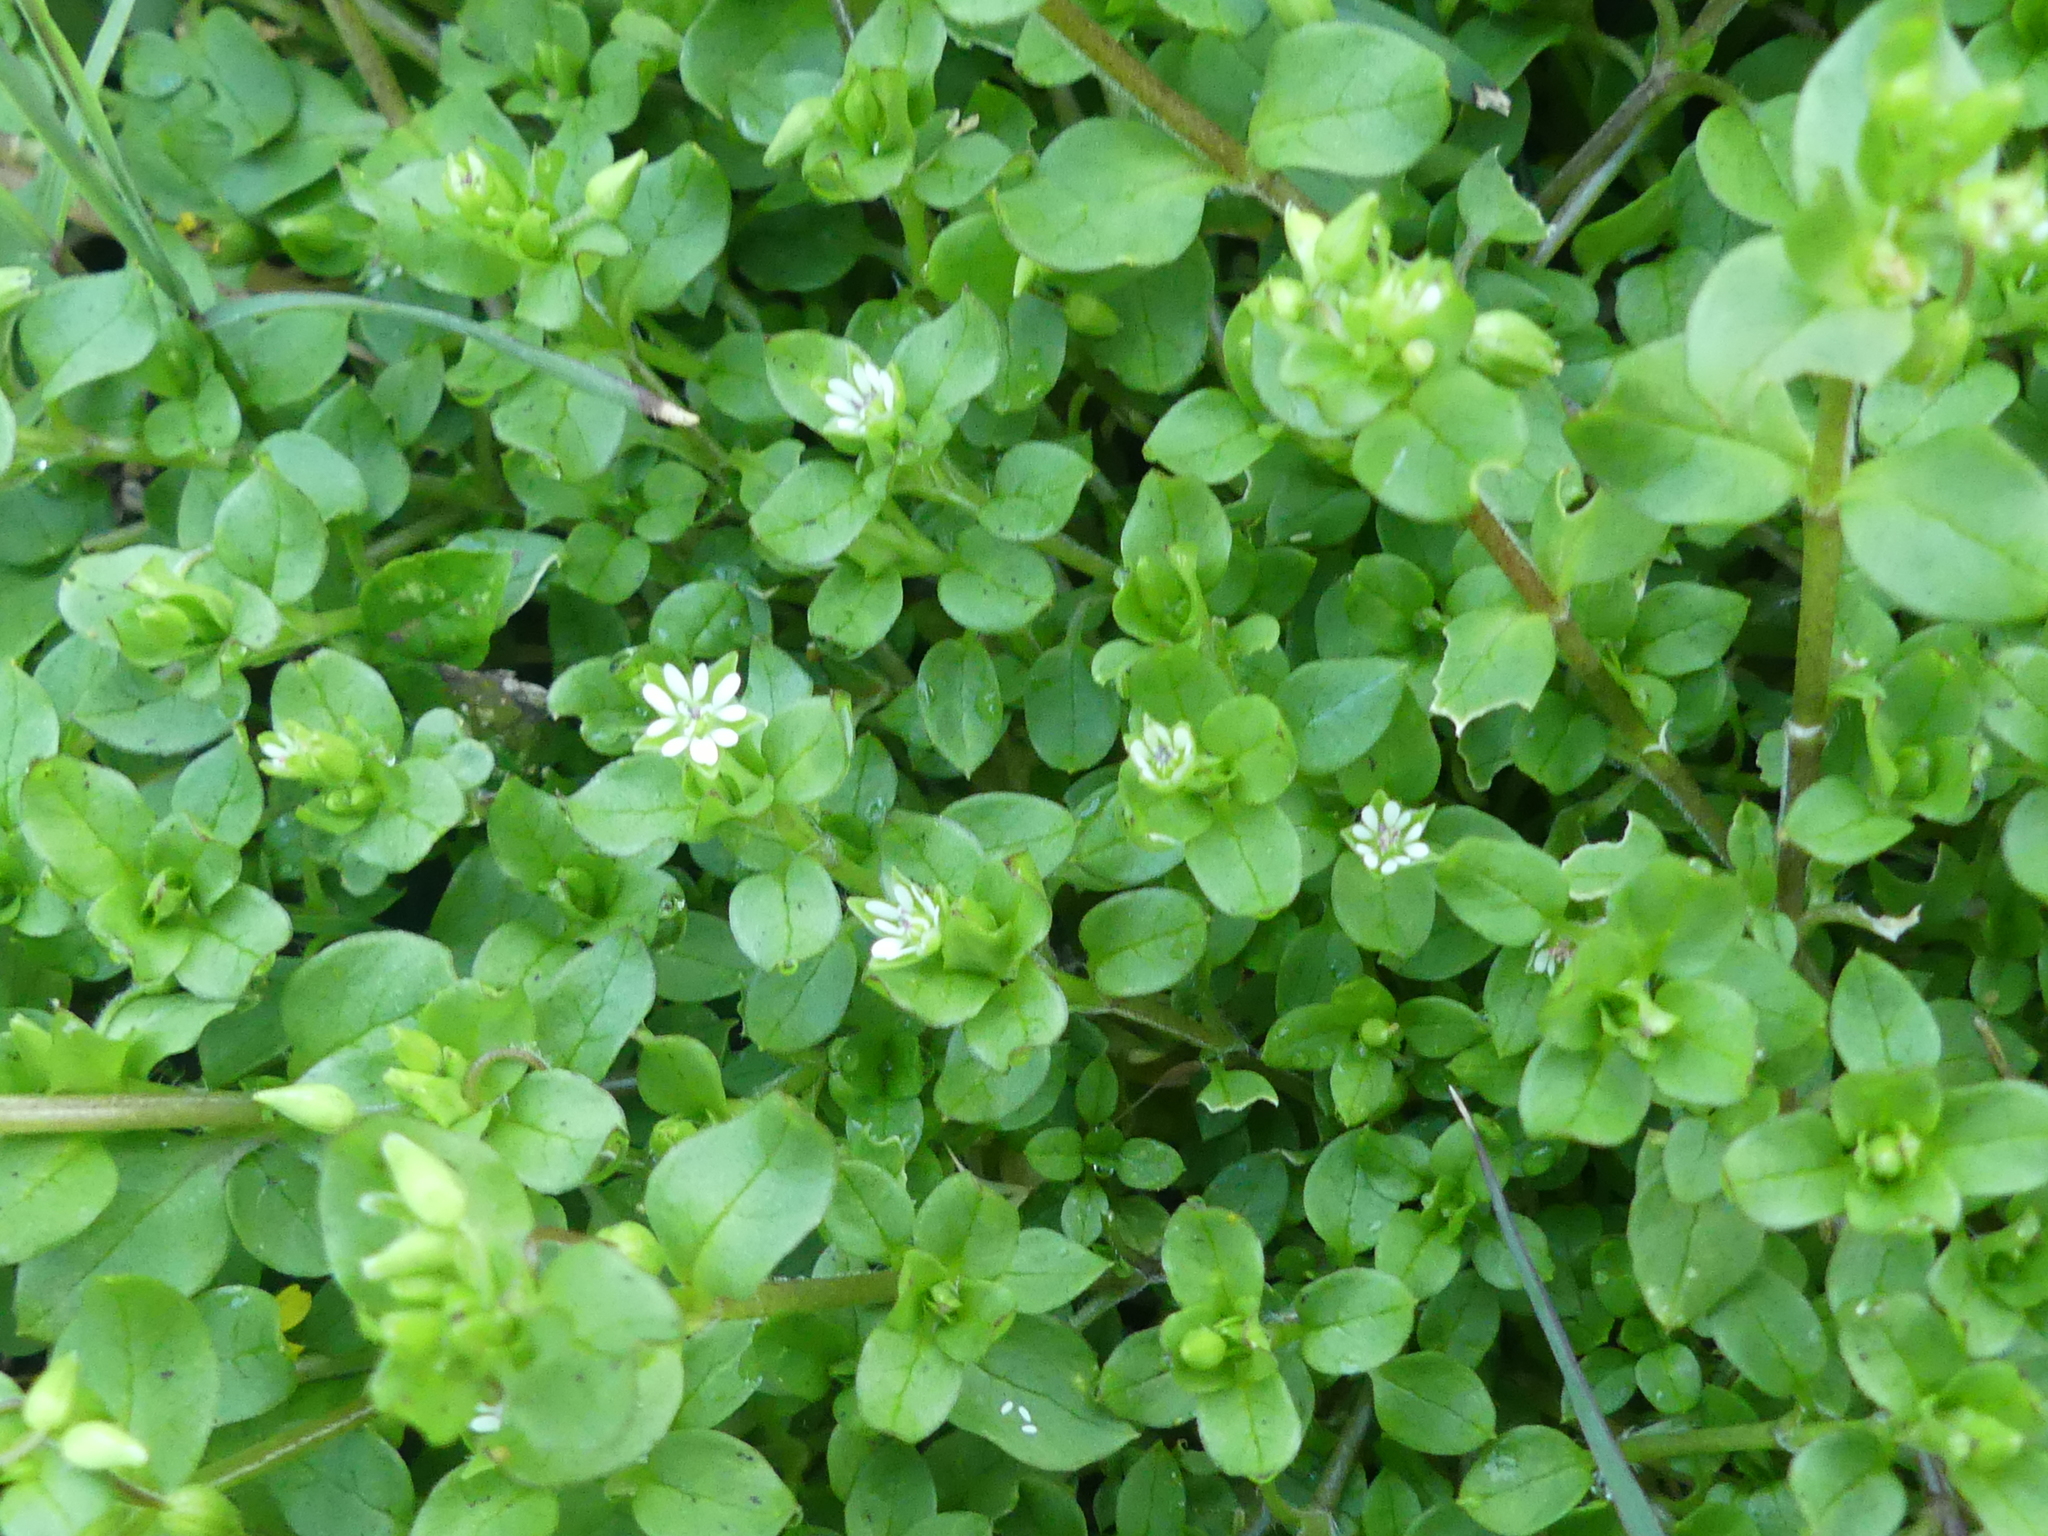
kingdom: Plantae
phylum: Tracheophyta
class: Magnoliopsida
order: Caryophyllales
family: Caryophyllaceae
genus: Stellaria
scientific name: Stellaria media
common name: Common chickweed
